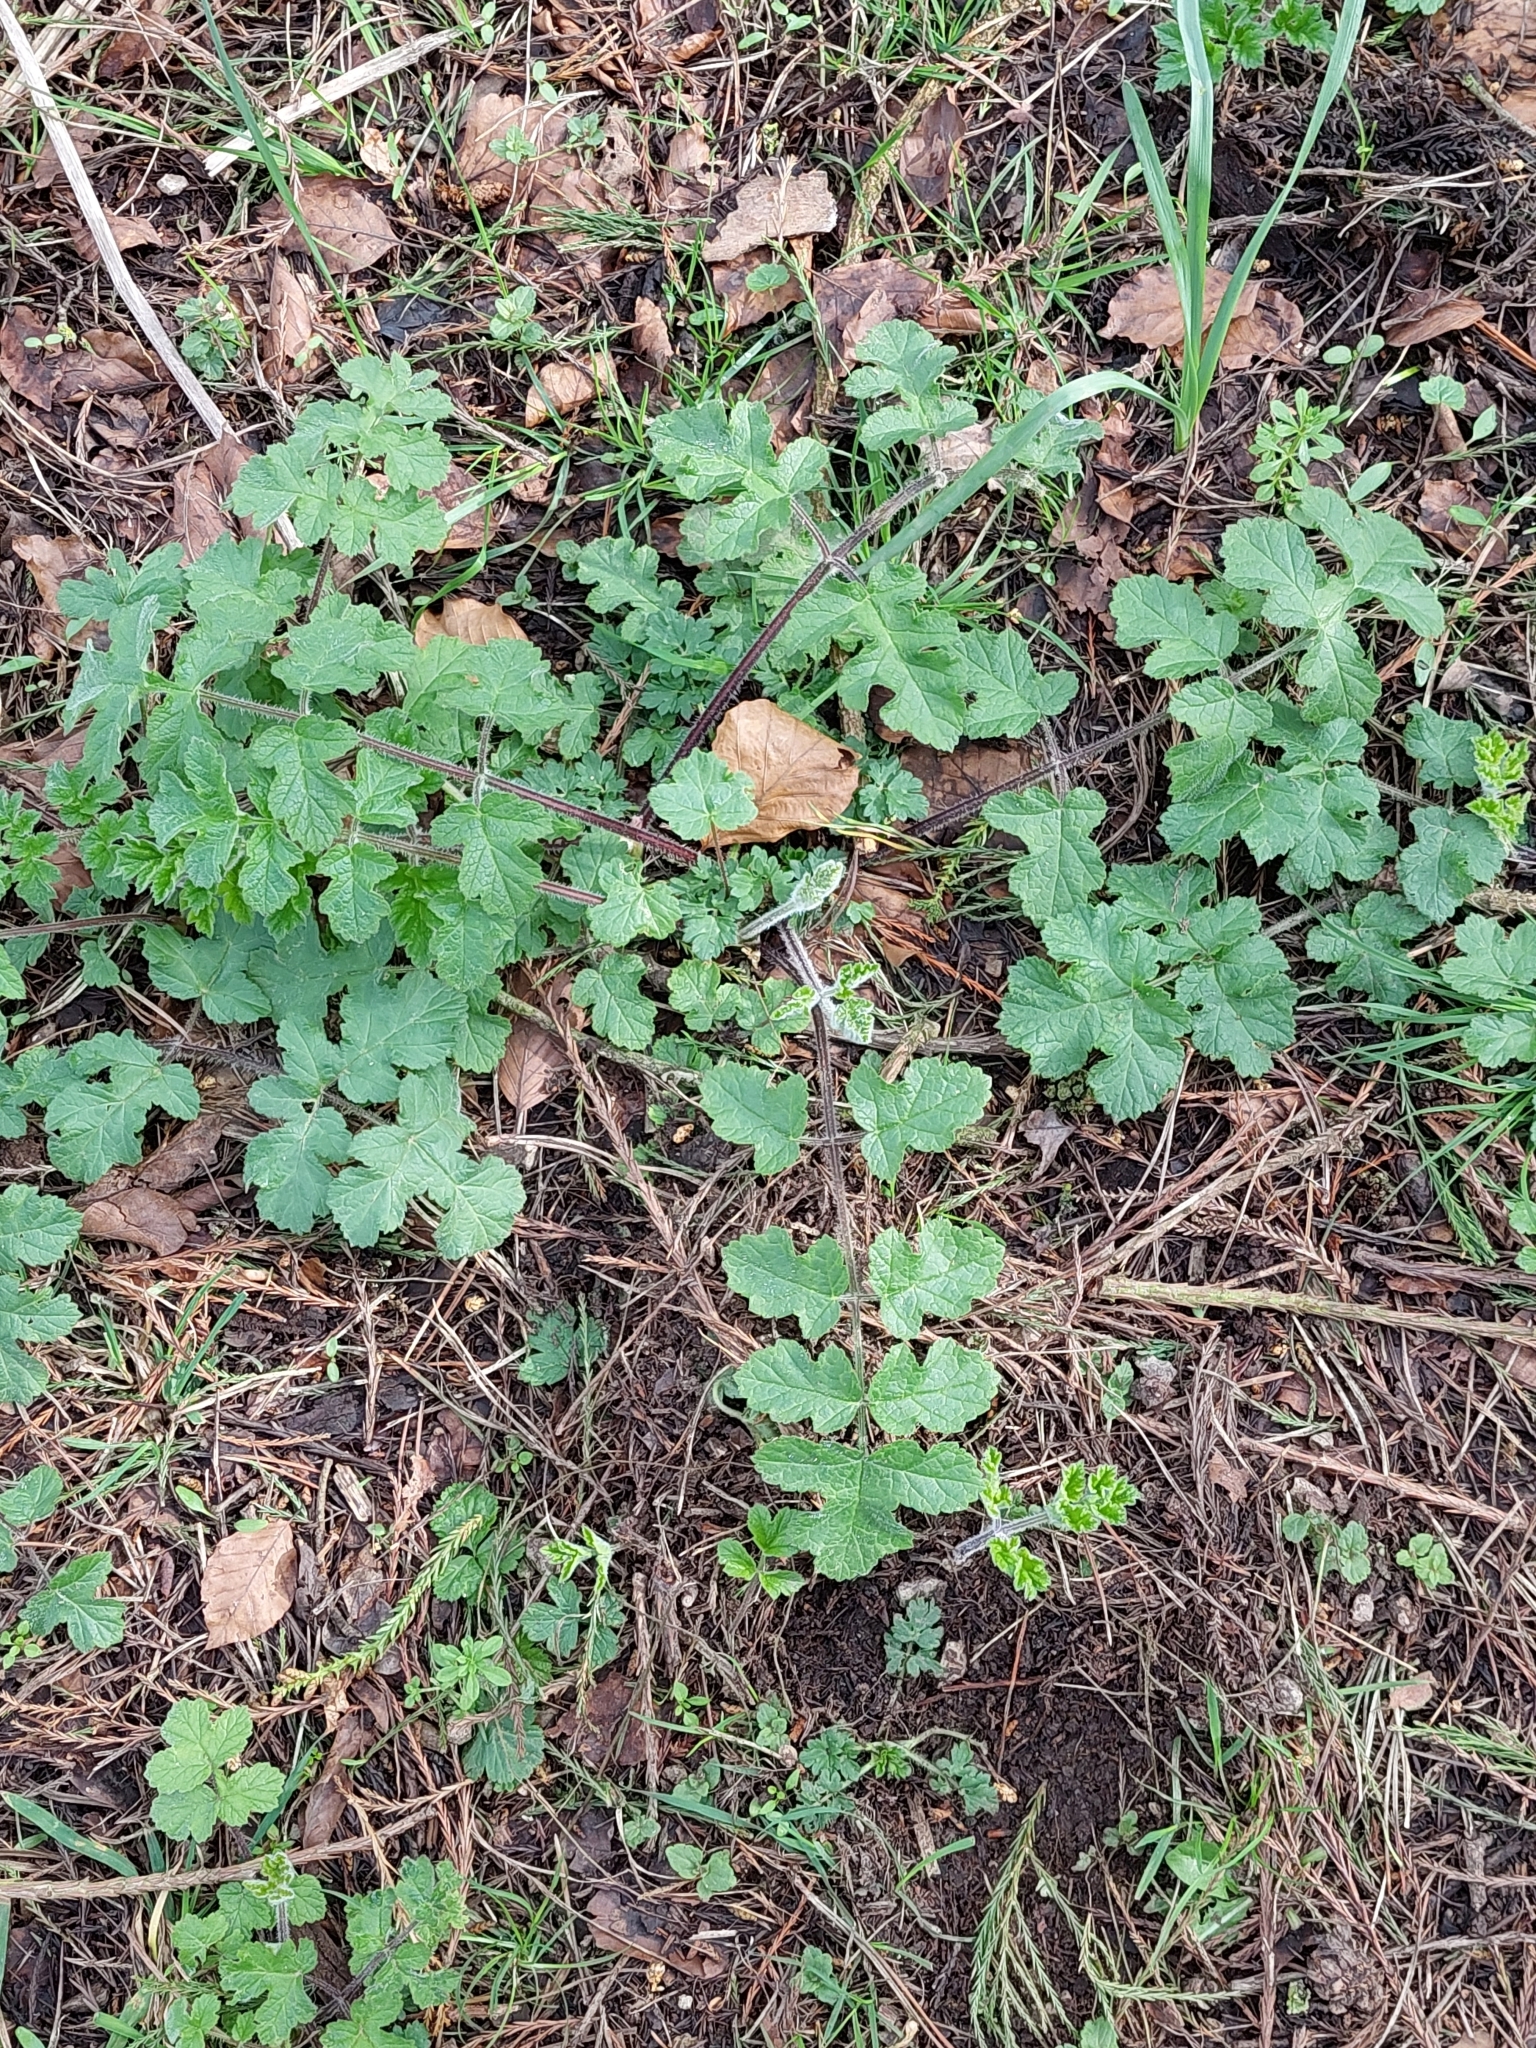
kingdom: Plantae
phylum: Tracheophyta
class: Magnoliopsida
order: Apiales
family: Apiaceae
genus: Heracleum
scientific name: Heracleum sphondylium
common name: Hogweed
